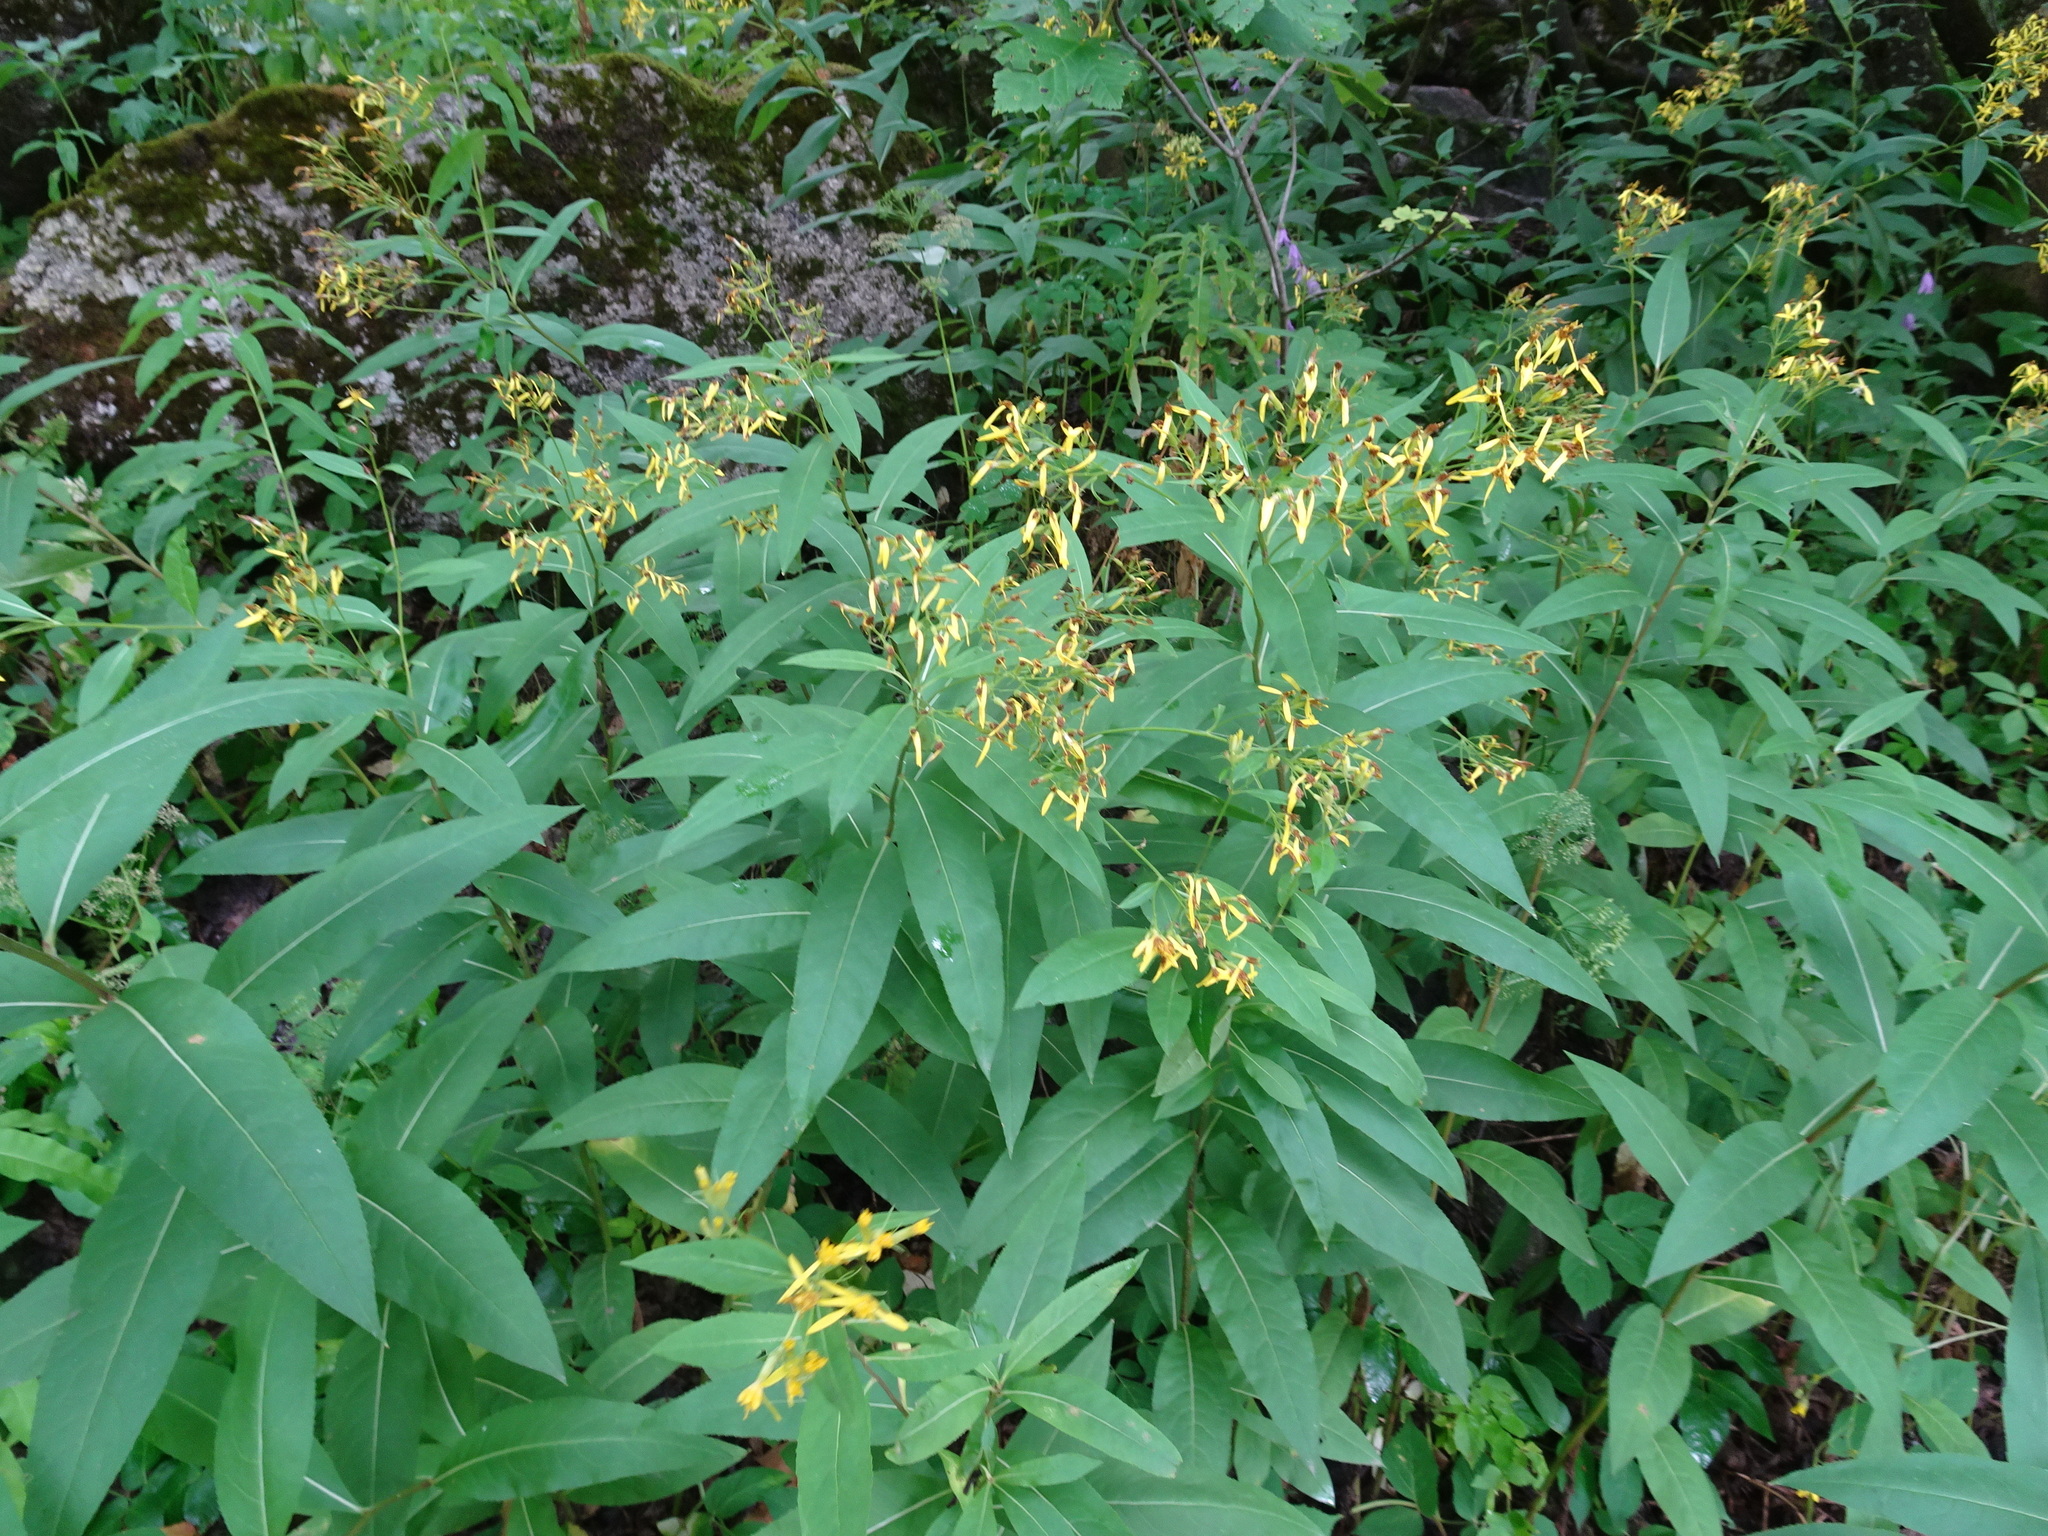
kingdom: Plantae
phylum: Tracheophyta
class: Magnoliopsida
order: Asterales
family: Asteraceae
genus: Senecio
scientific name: Senecio ovatus
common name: Wood ragwort
